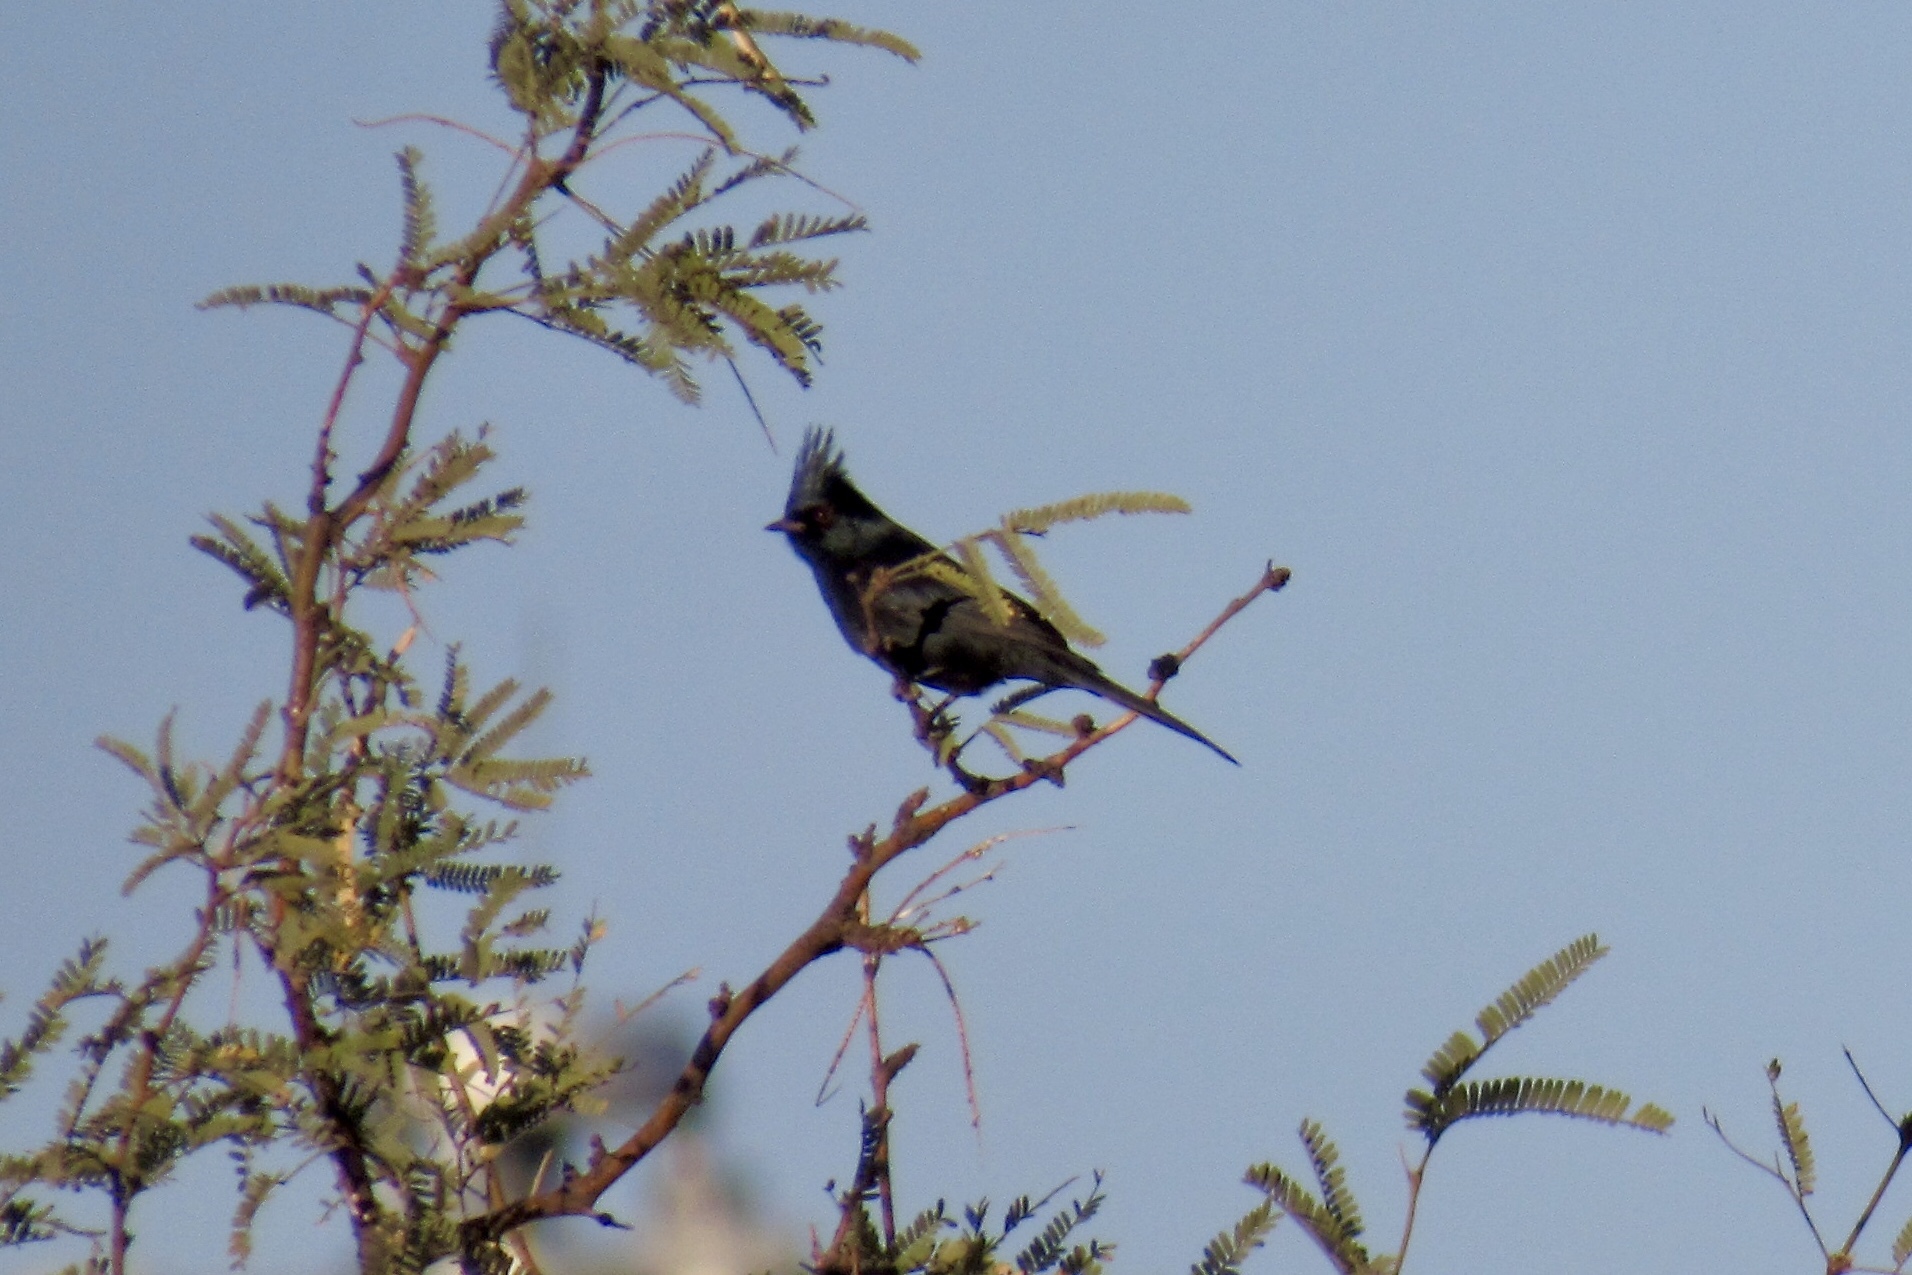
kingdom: Animalia
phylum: Chordata
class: Aves
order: Passeriformes
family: Ptilogonatidae
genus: Phainopepla
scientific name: Phainopepla nitens
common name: Phainopepla
